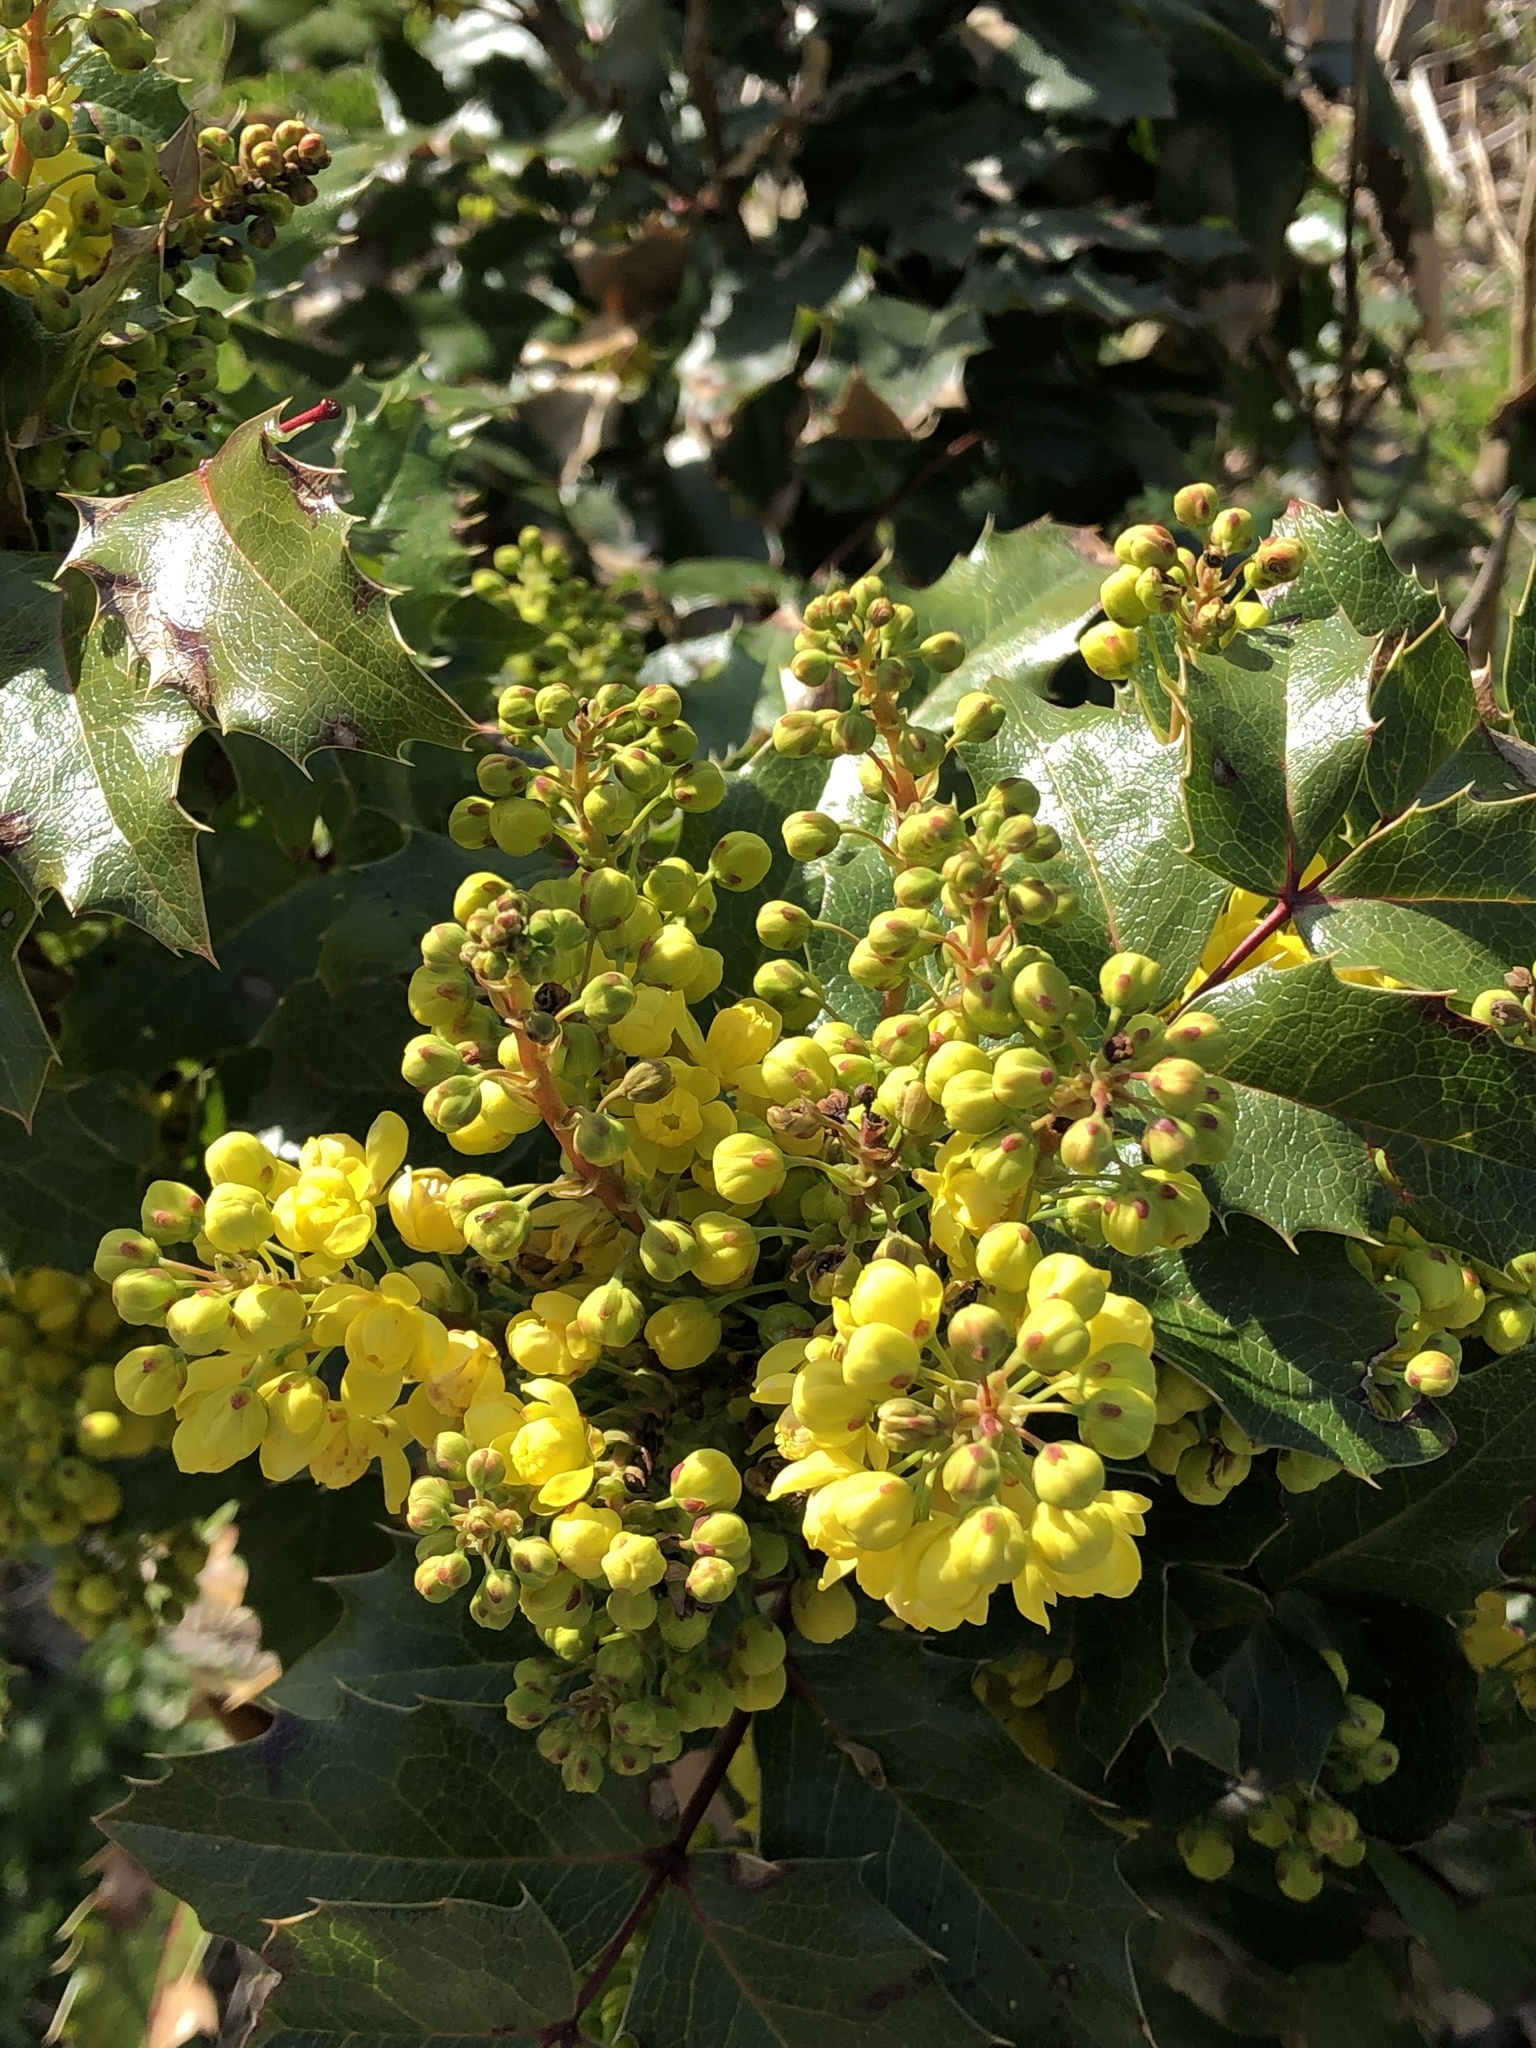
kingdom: Plantae
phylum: Tracheophyta
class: Magnoliopsida
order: Ranunculales
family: Berberidaceae
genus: Mahonia
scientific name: Mahonia aquifolium
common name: Oregon-grape
